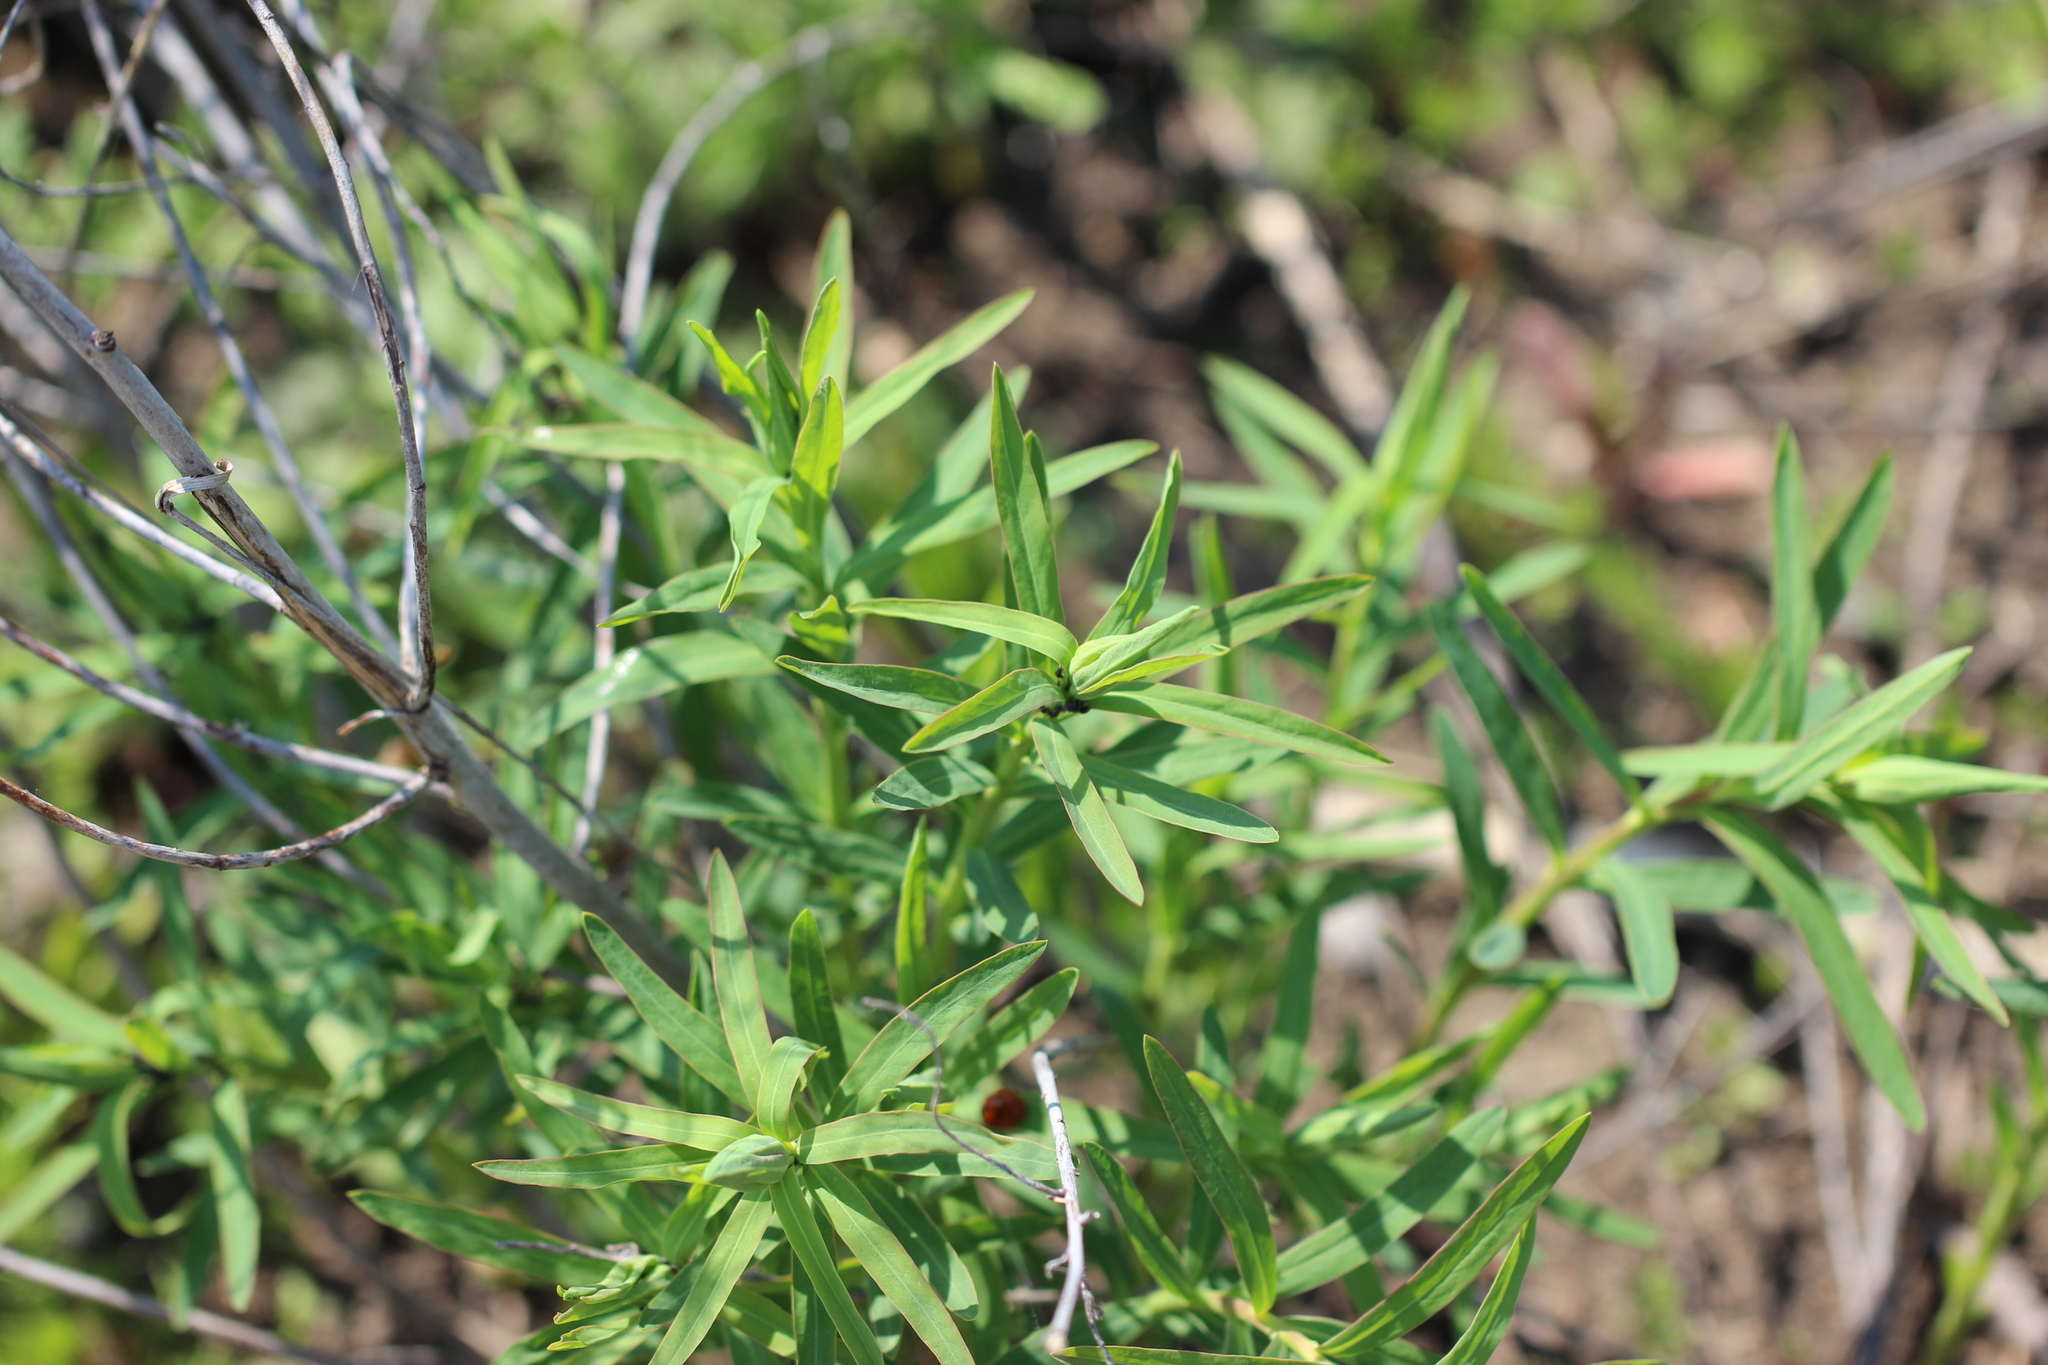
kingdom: Plantae
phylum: Tracheophyta
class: Magnoliopsida
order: Malpighiales
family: Euphorbiaceae
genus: Euphorbia
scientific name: Euphorbia virgata
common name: Leafy spurge
